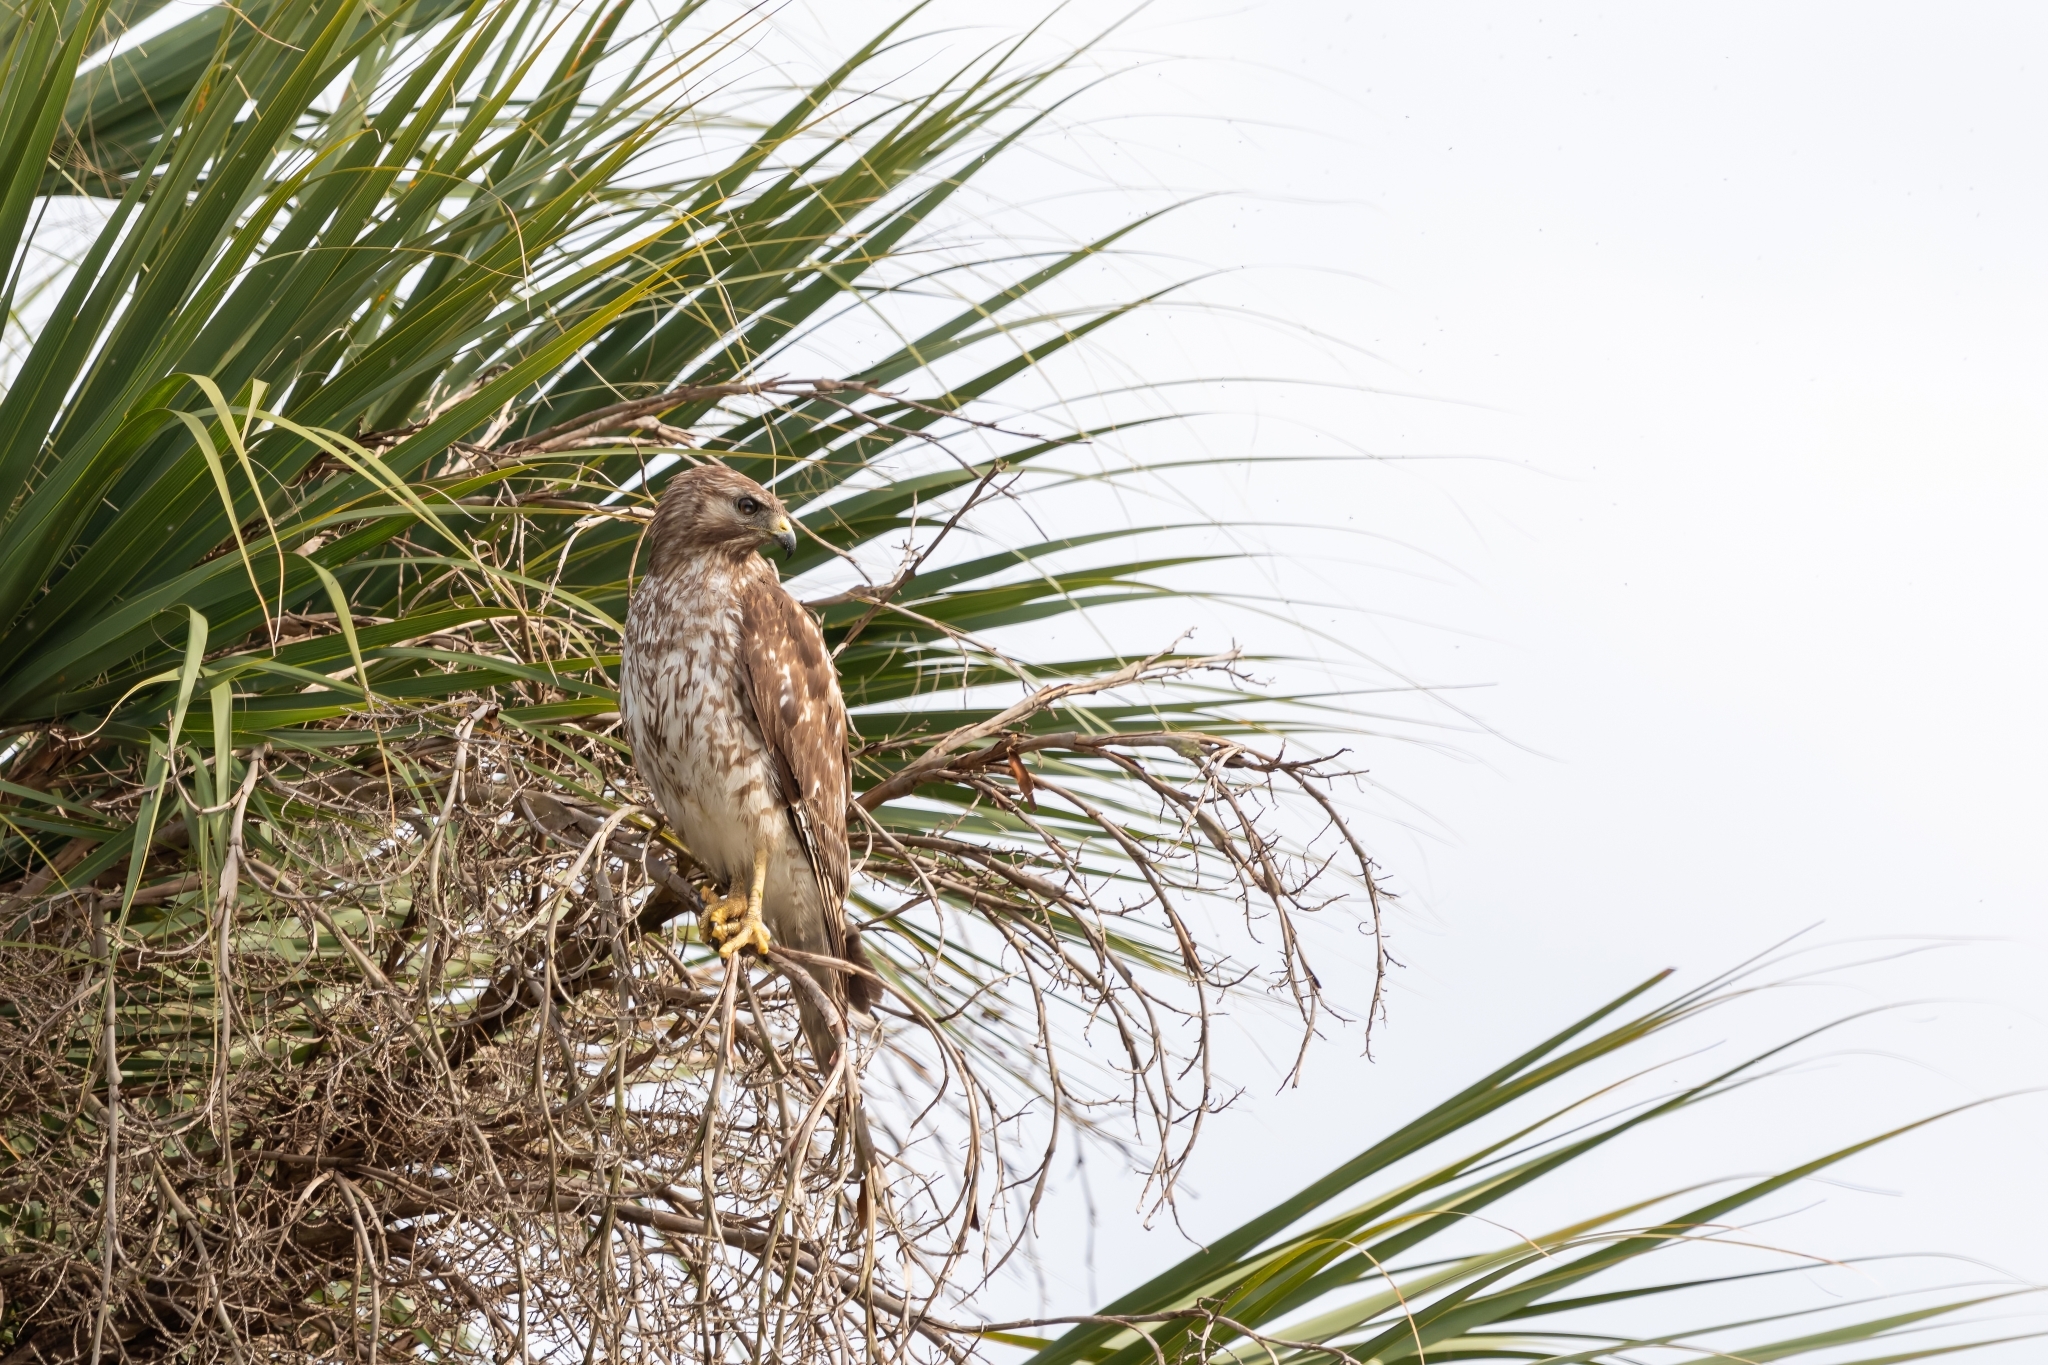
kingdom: Animalia
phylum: Chordata
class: Aves
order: Accipitriformes
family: Accipitridae
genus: Buteo
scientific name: Buteo lineatus
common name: Red-shouldered hawk
